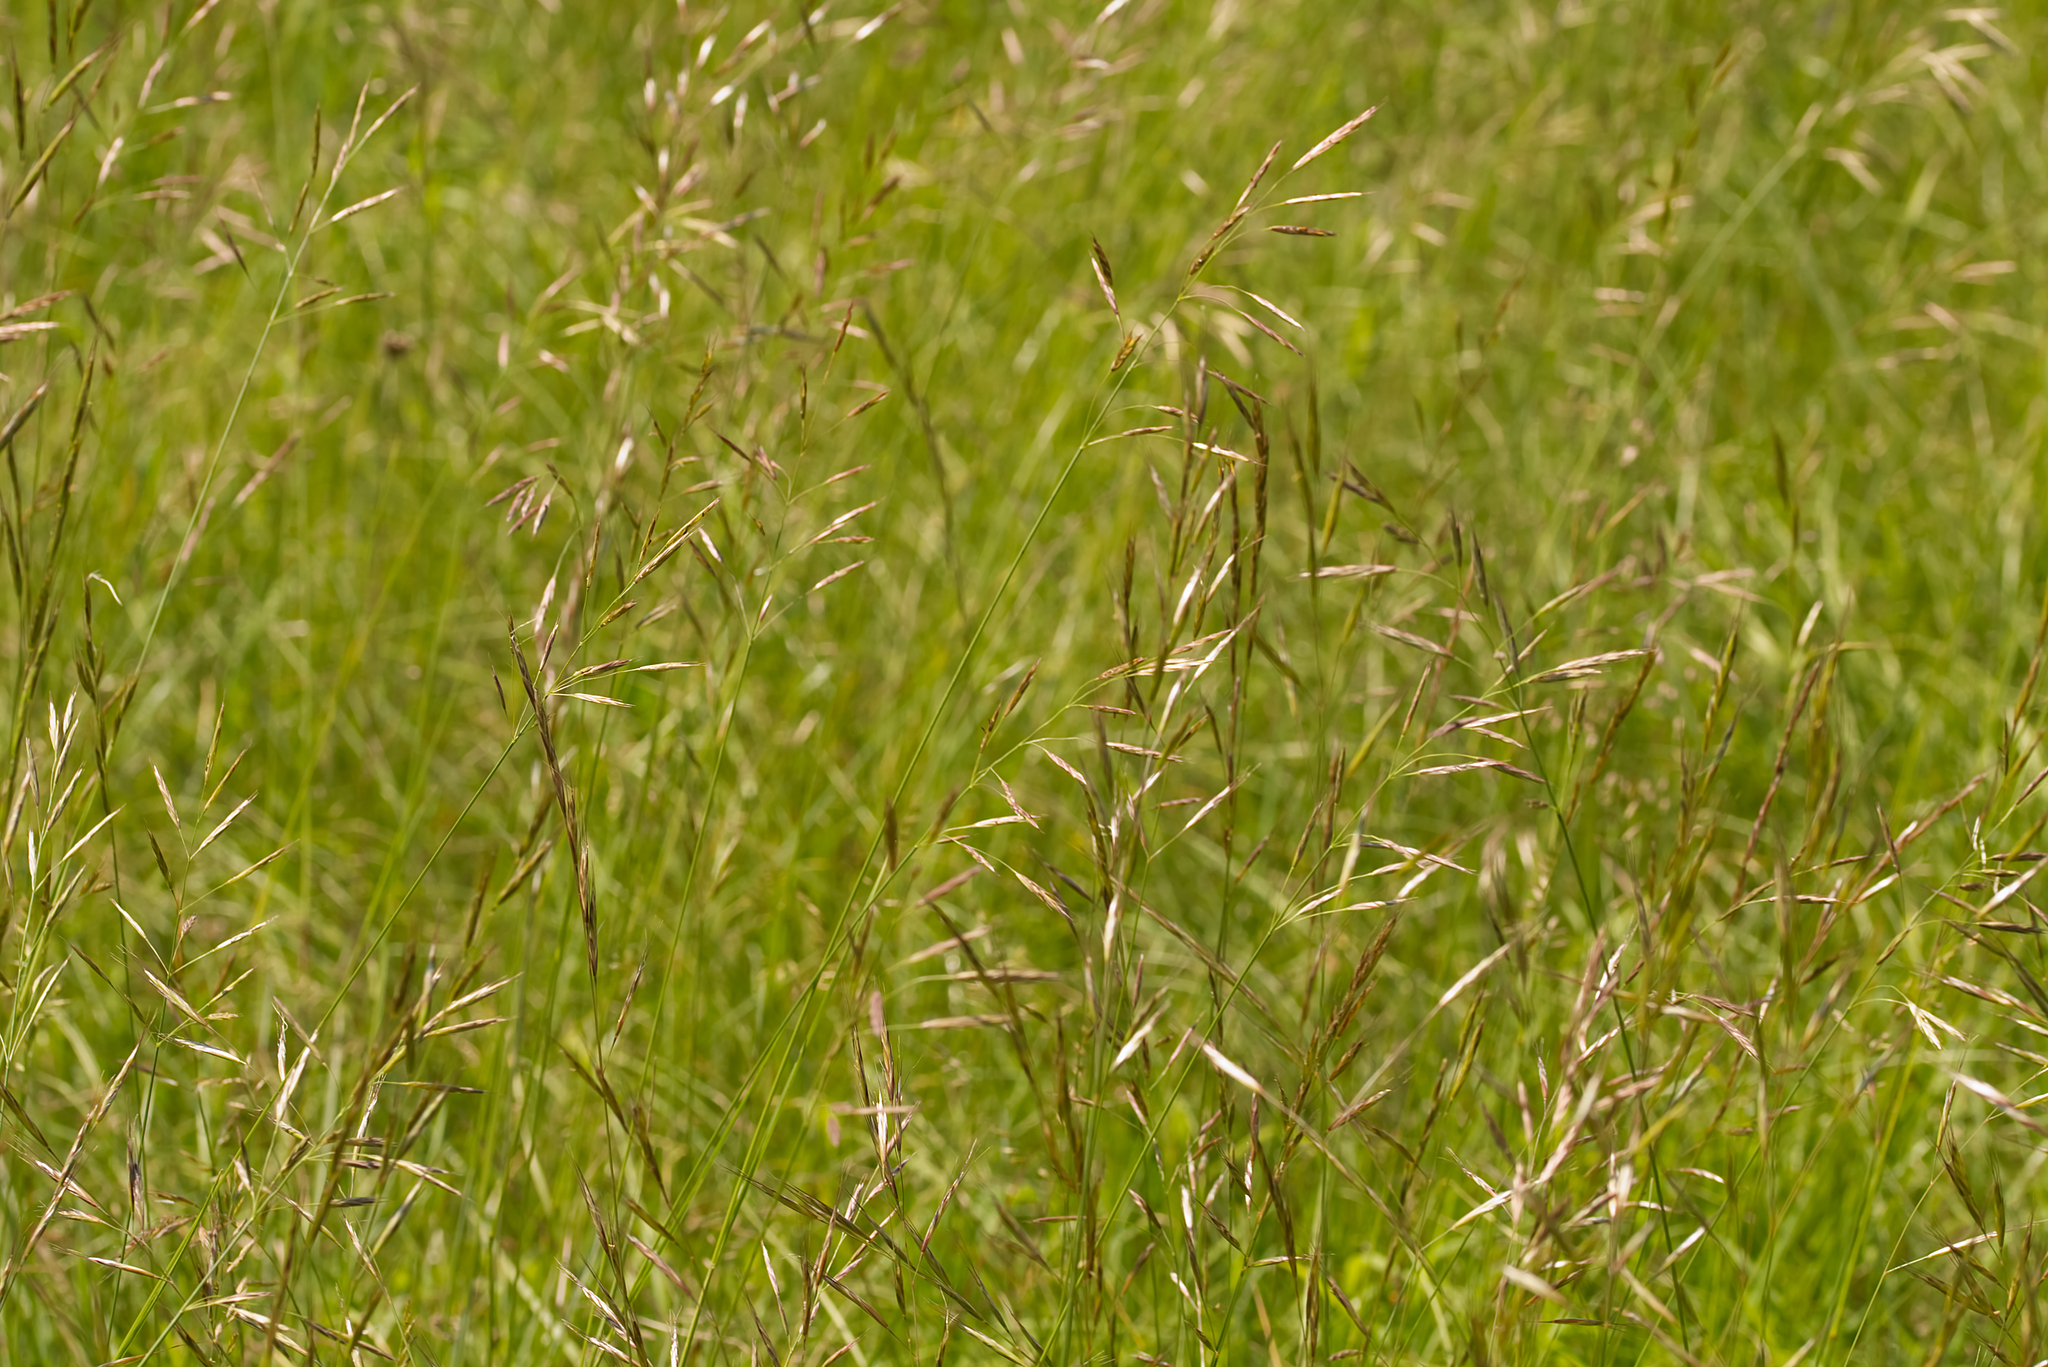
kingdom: Plantae
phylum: Tracheophyta
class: Liliopsida
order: Poales
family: Poaceae
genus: Bromus
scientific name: Bromus erectus
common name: Erect brome
